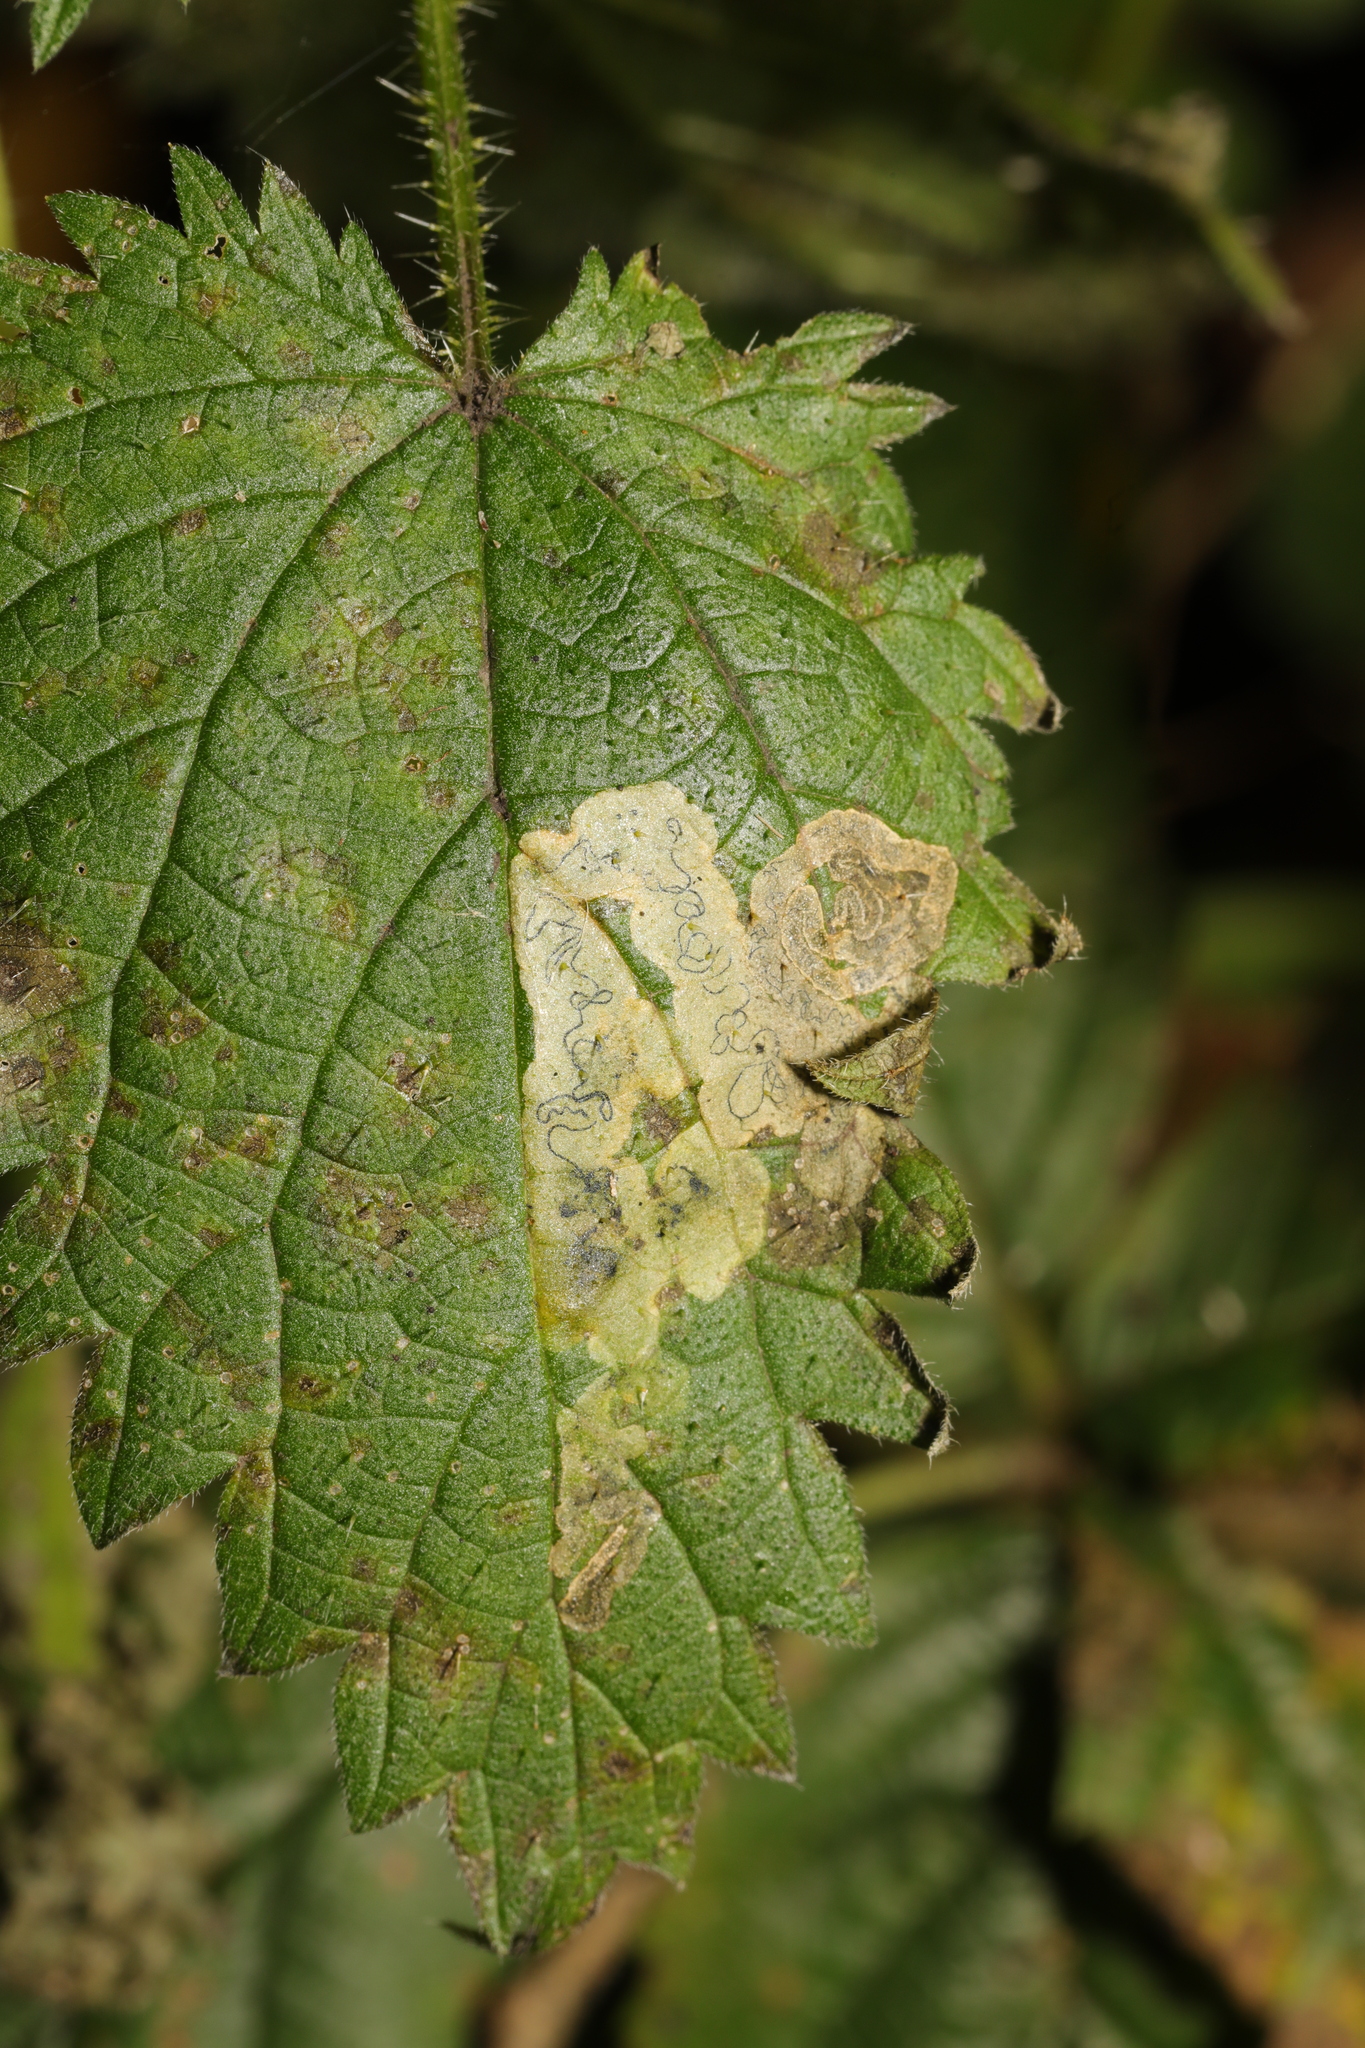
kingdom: Animalia
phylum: Arthropoda
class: Insecta
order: Diptera
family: Agromyzidae
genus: Agromyza
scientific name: Agromyza anthracina
